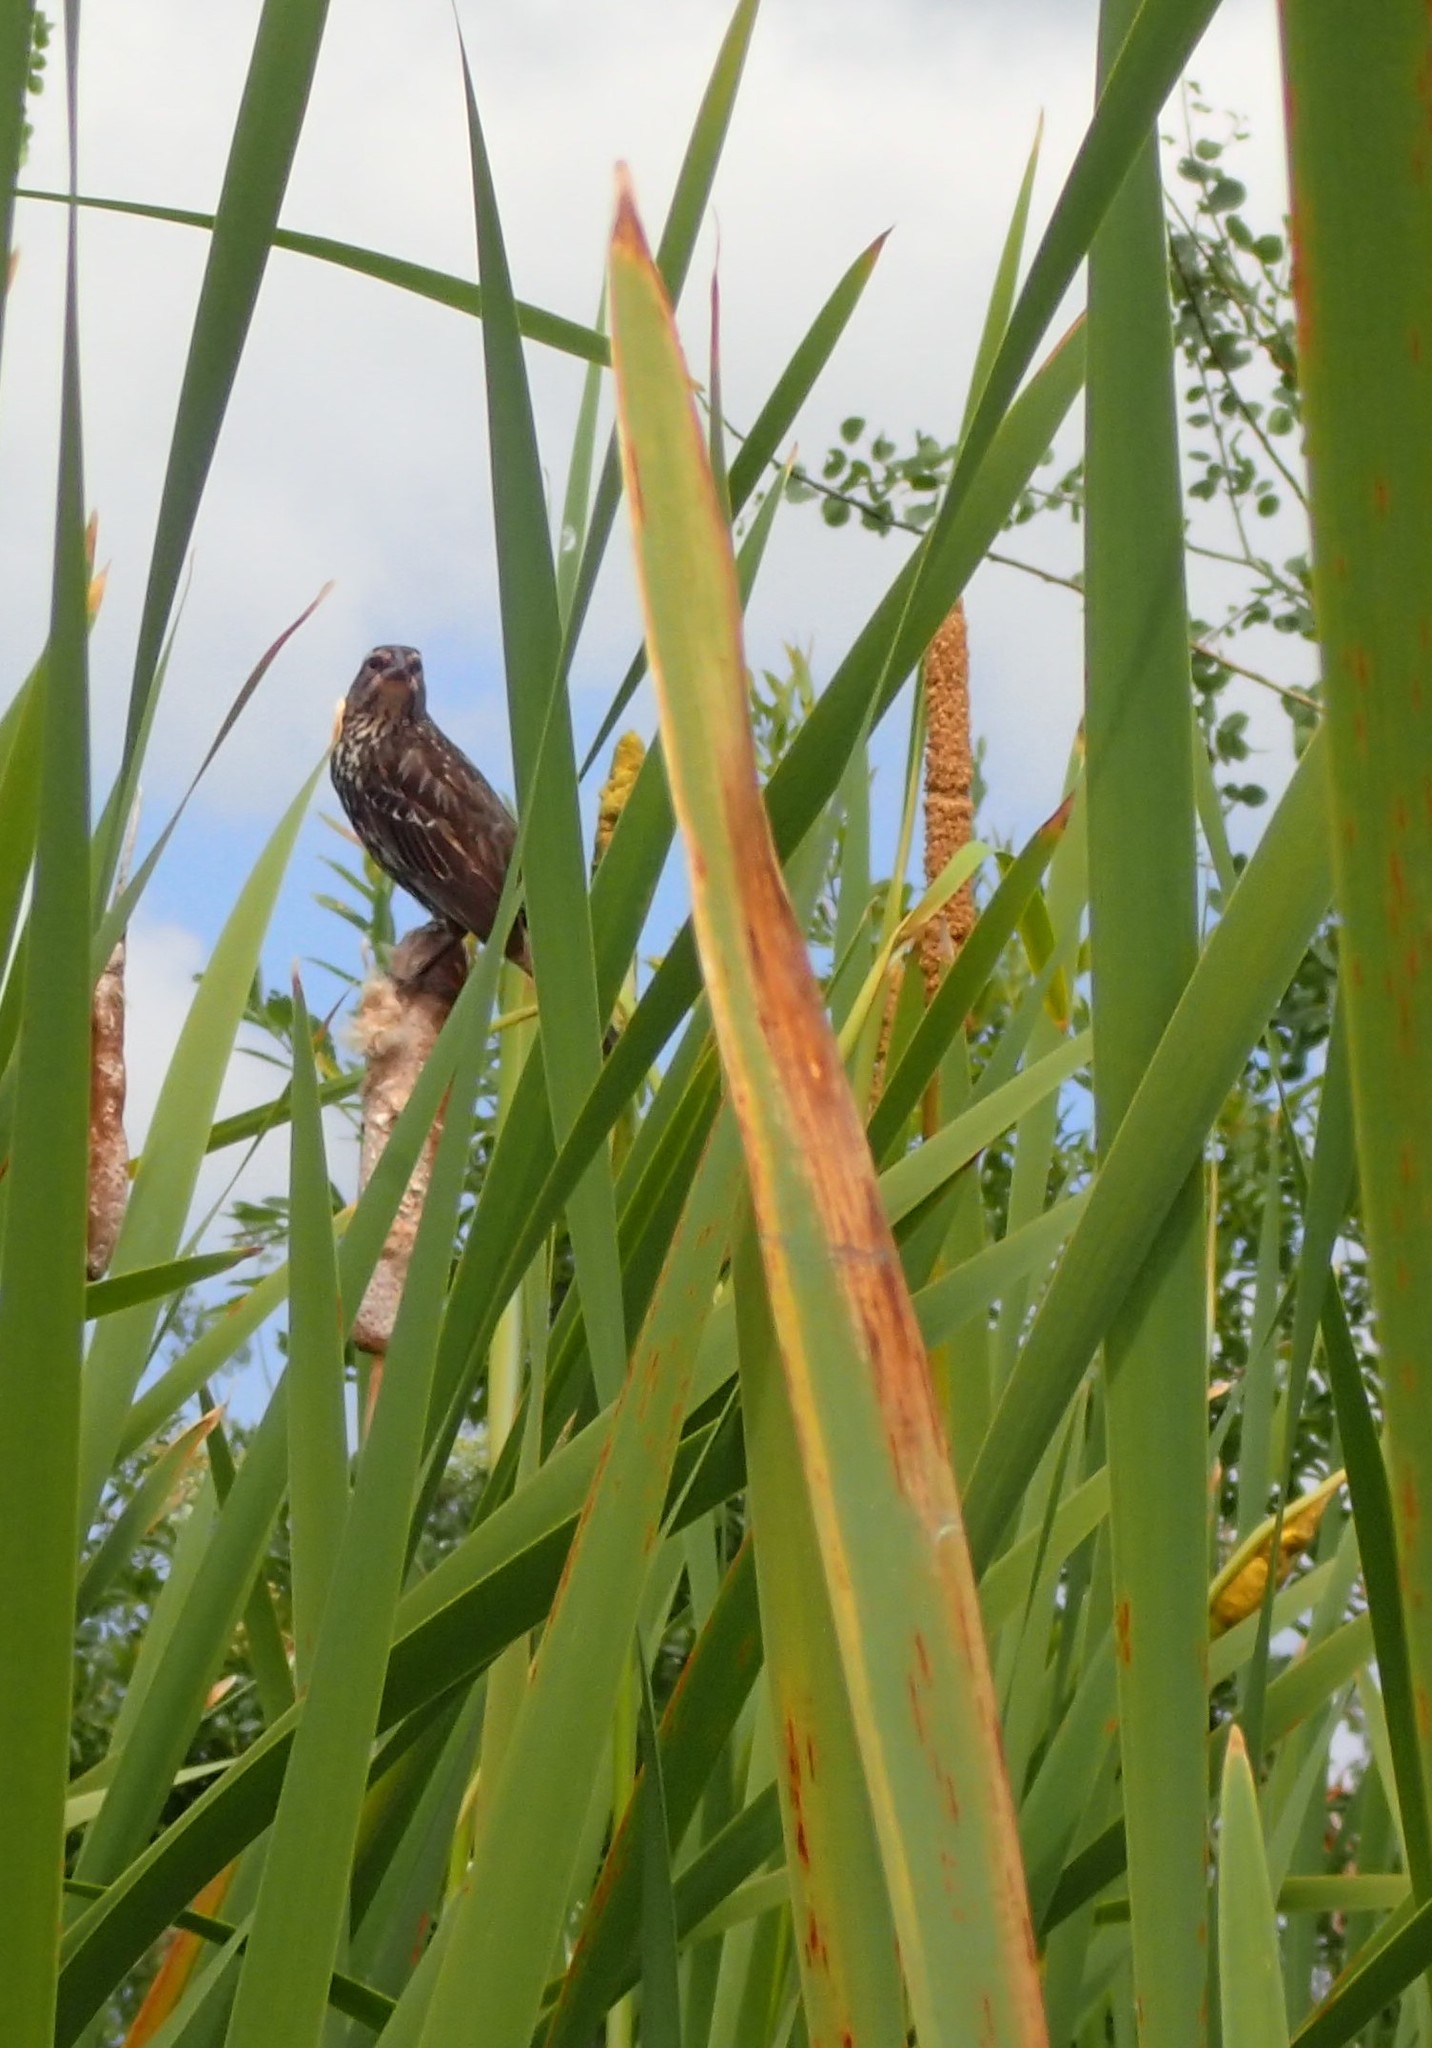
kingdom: Animalia
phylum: Chordata
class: Aves
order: Passeriformes
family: Icteridae
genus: Agelaius
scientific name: Agelaius phoeniceus
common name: Red-winged blackbird
